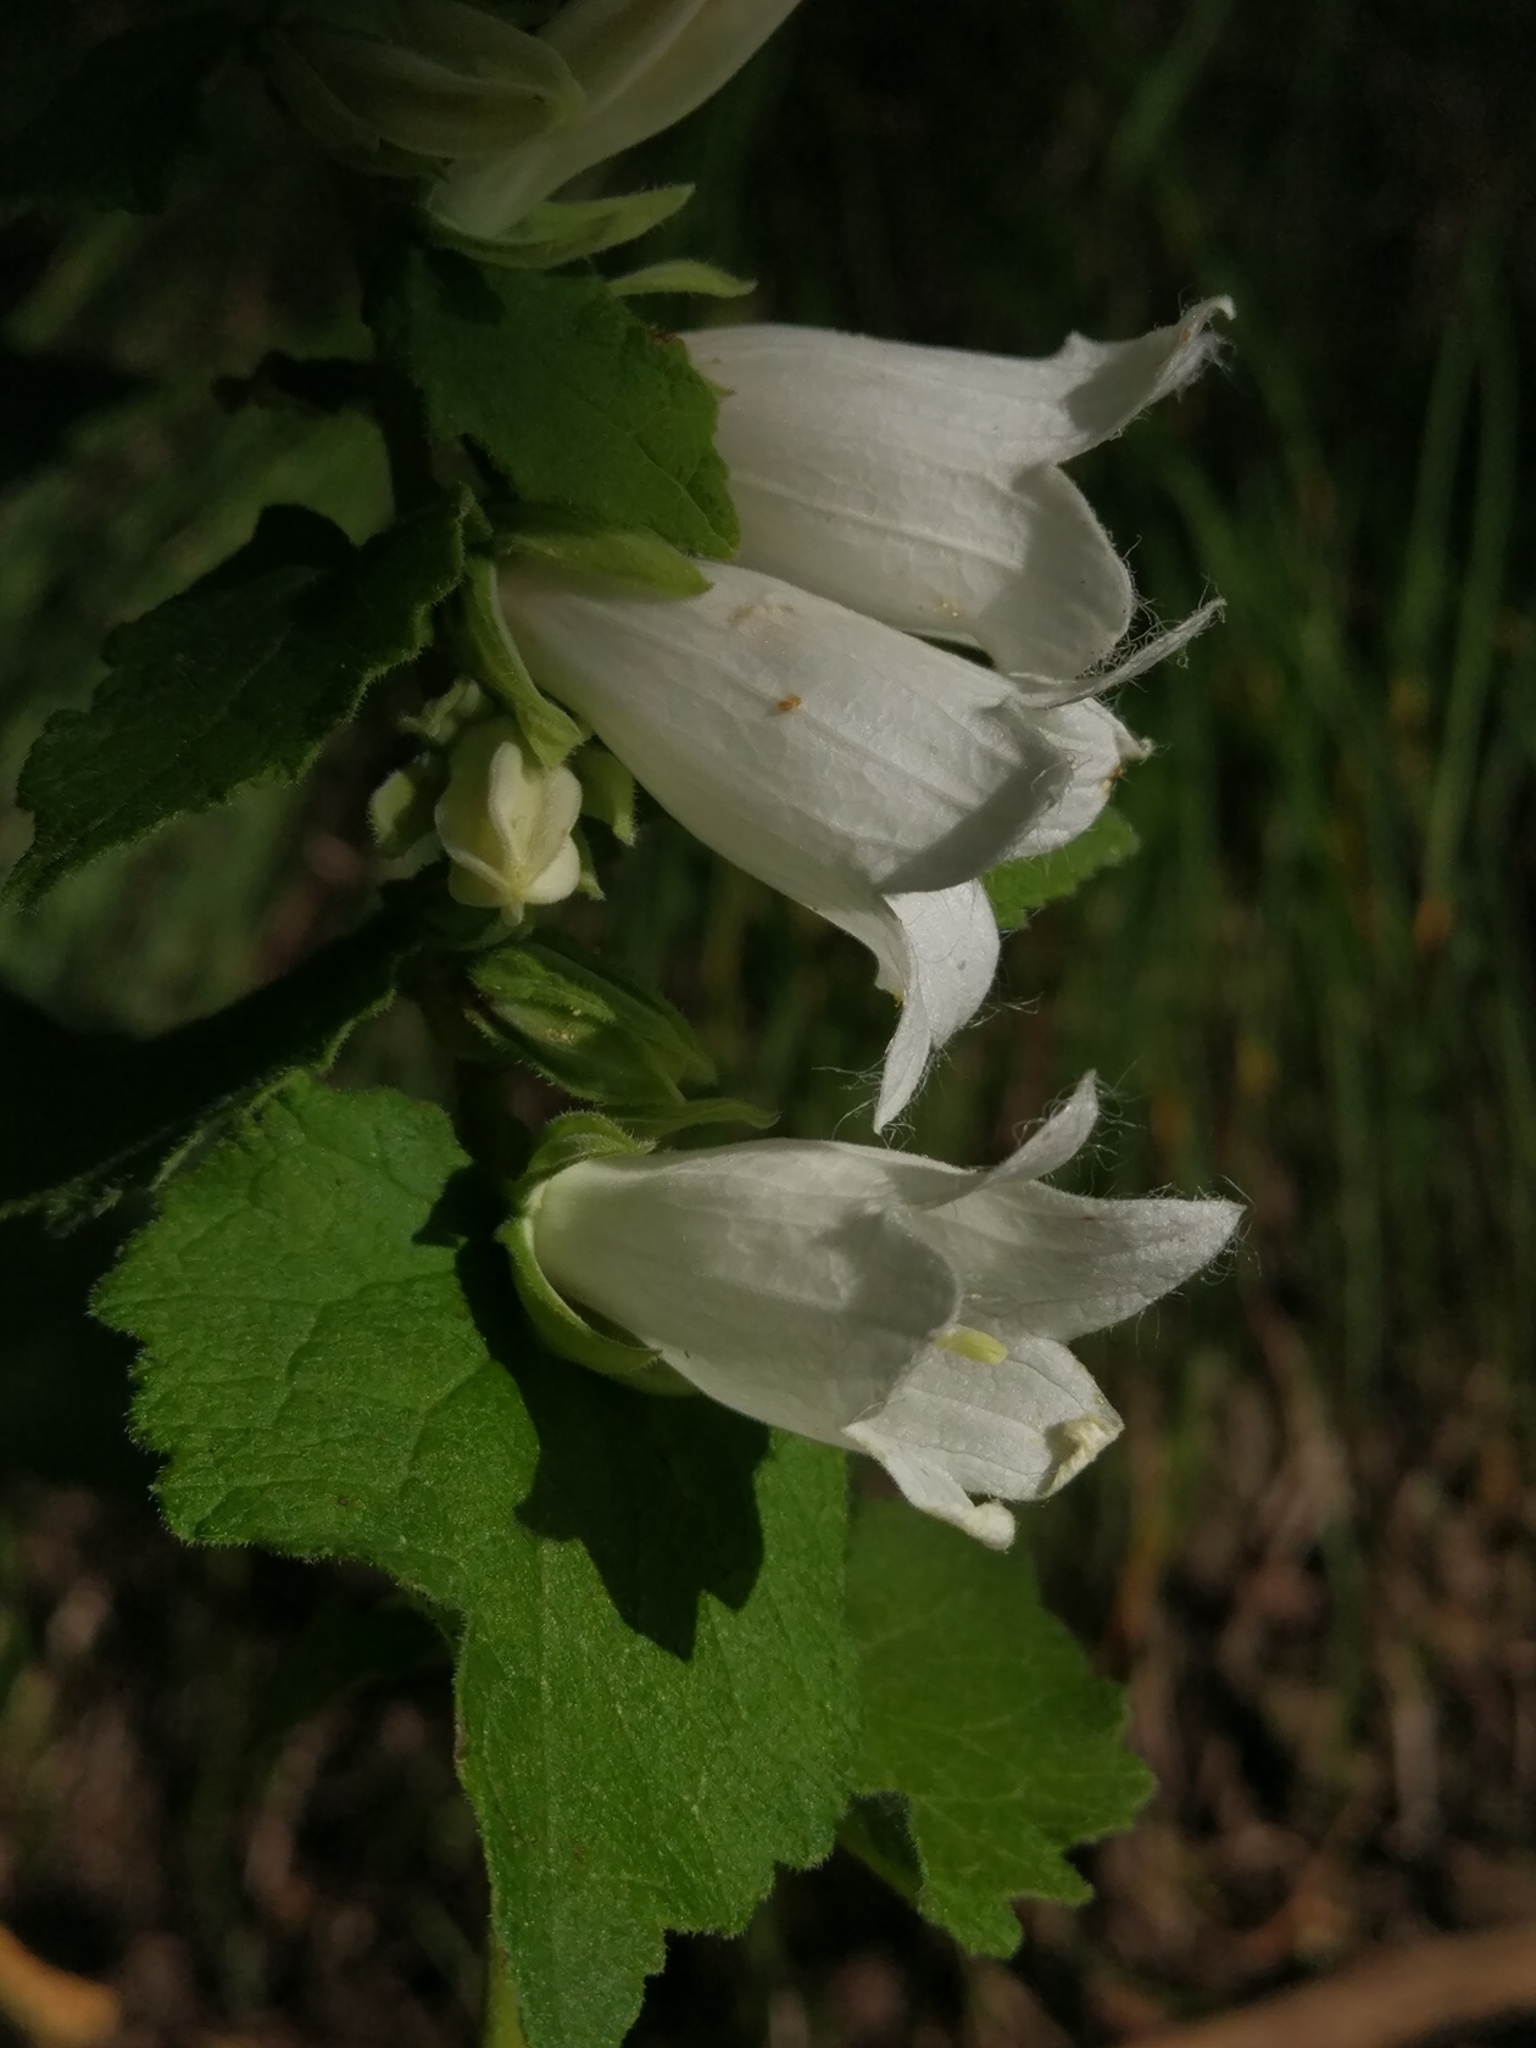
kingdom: Plantae
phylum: Tracheophyta
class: Magnoliopsida
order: Asterales
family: Campanulaceae
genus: Campanula
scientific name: Campanula alliariifolia
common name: Cornish bellflower
